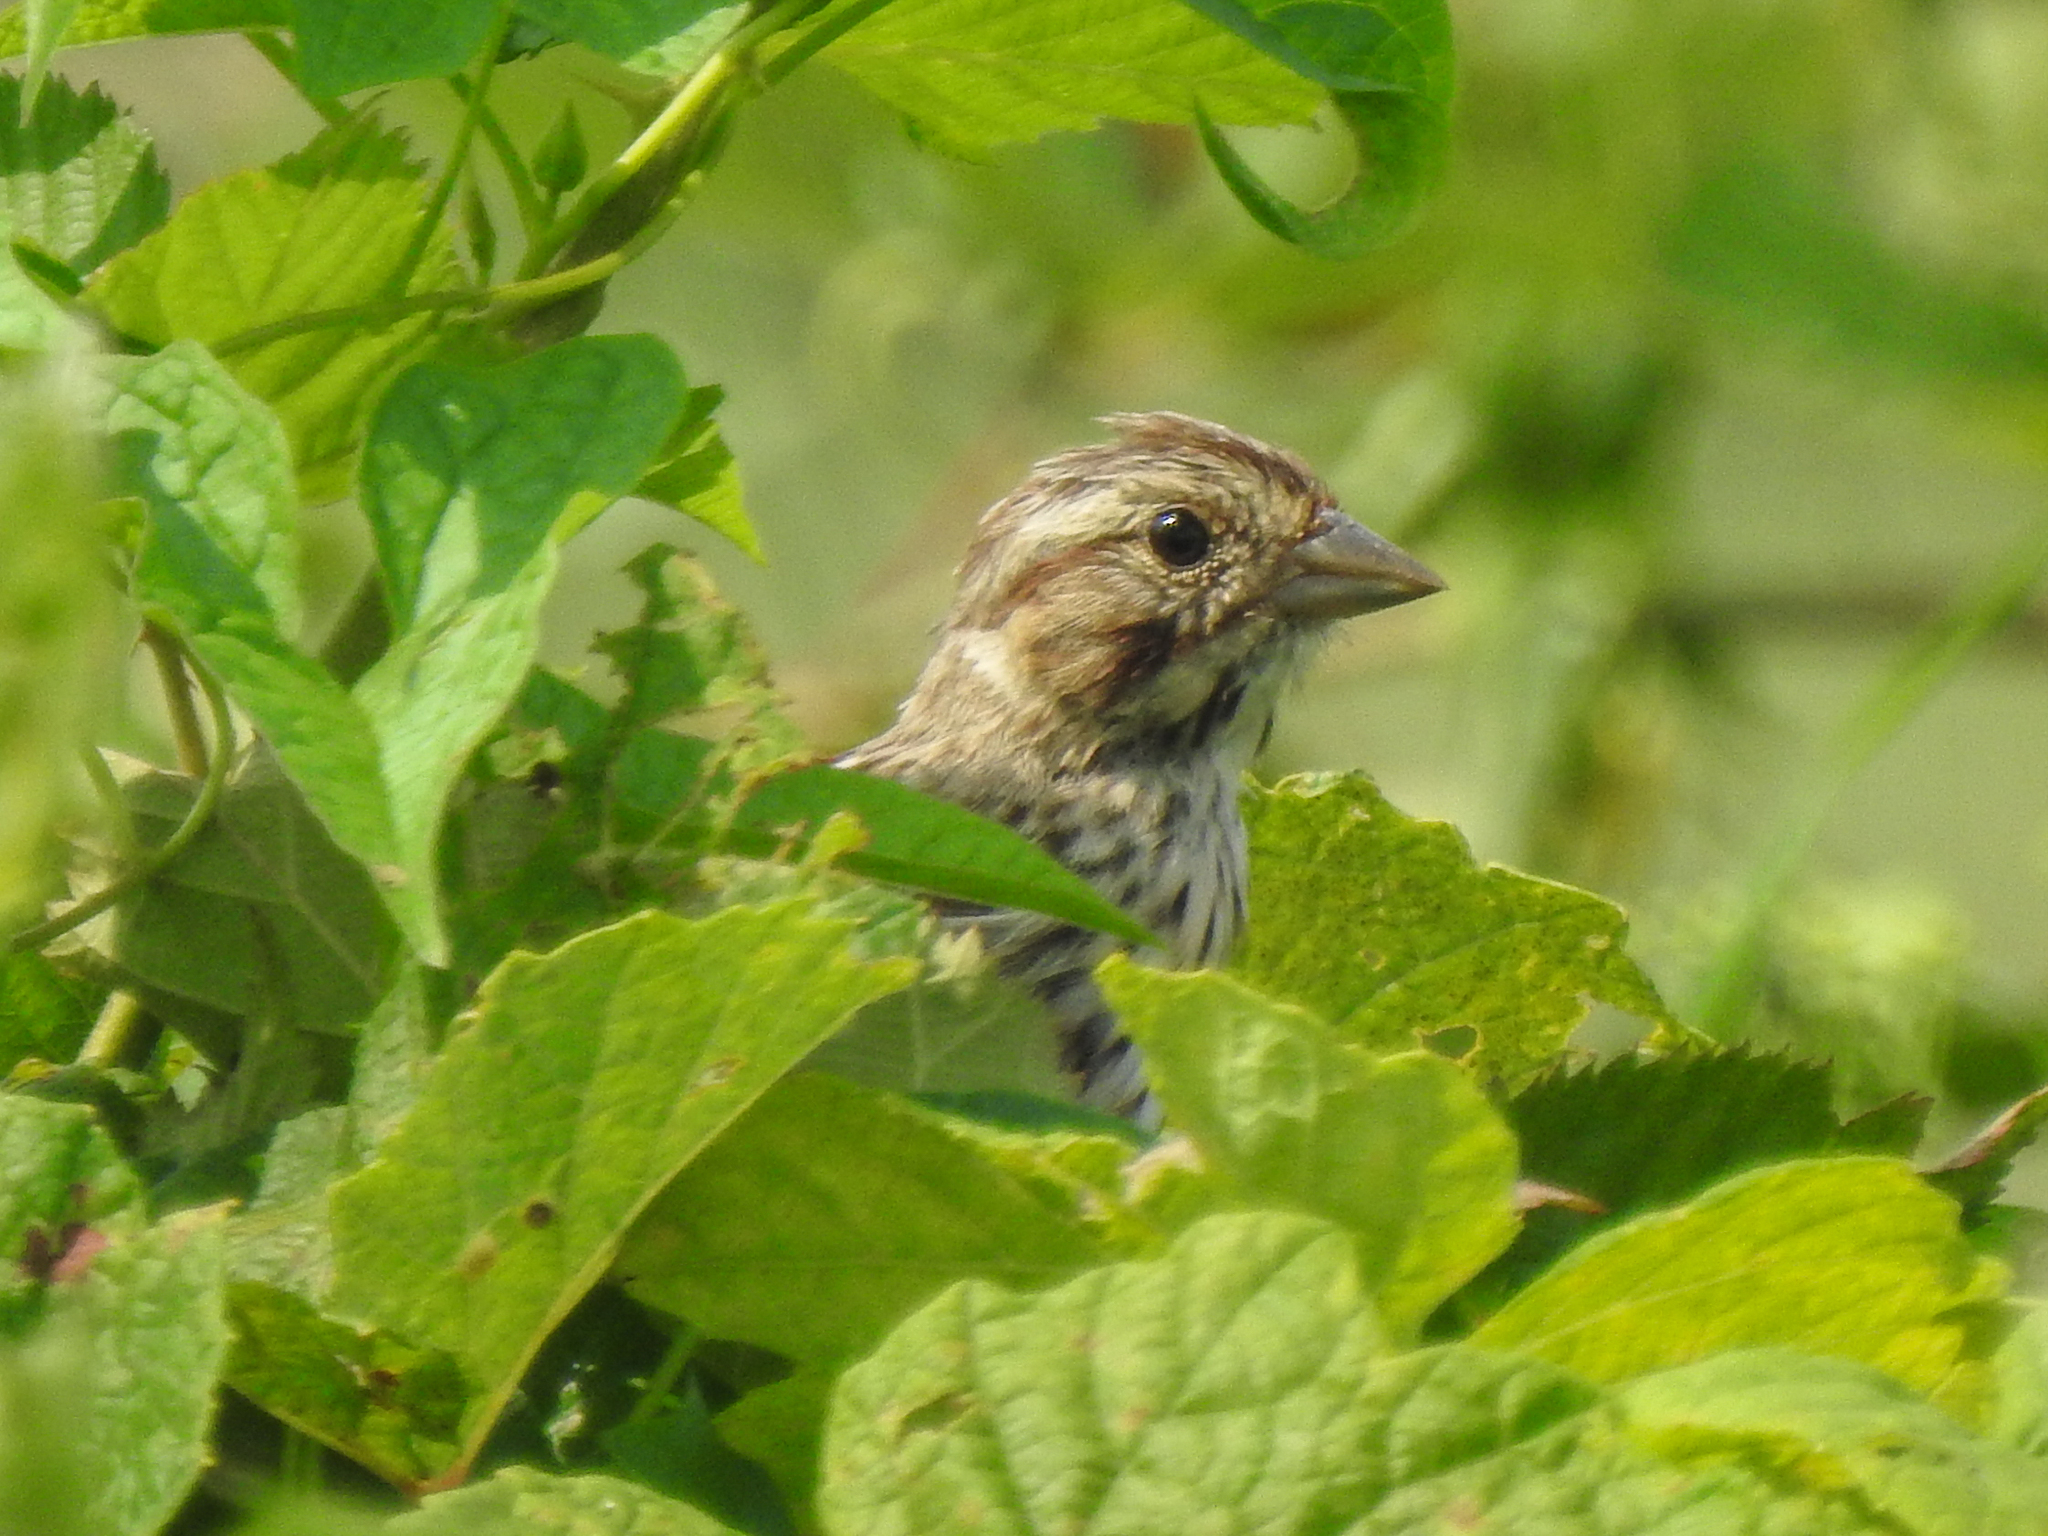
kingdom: Animalia
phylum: Chordata
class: Aves
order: Passeriformes
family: Passerellidae
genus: Melospiza
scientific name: Melospiza melodia
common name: Song sparrow
